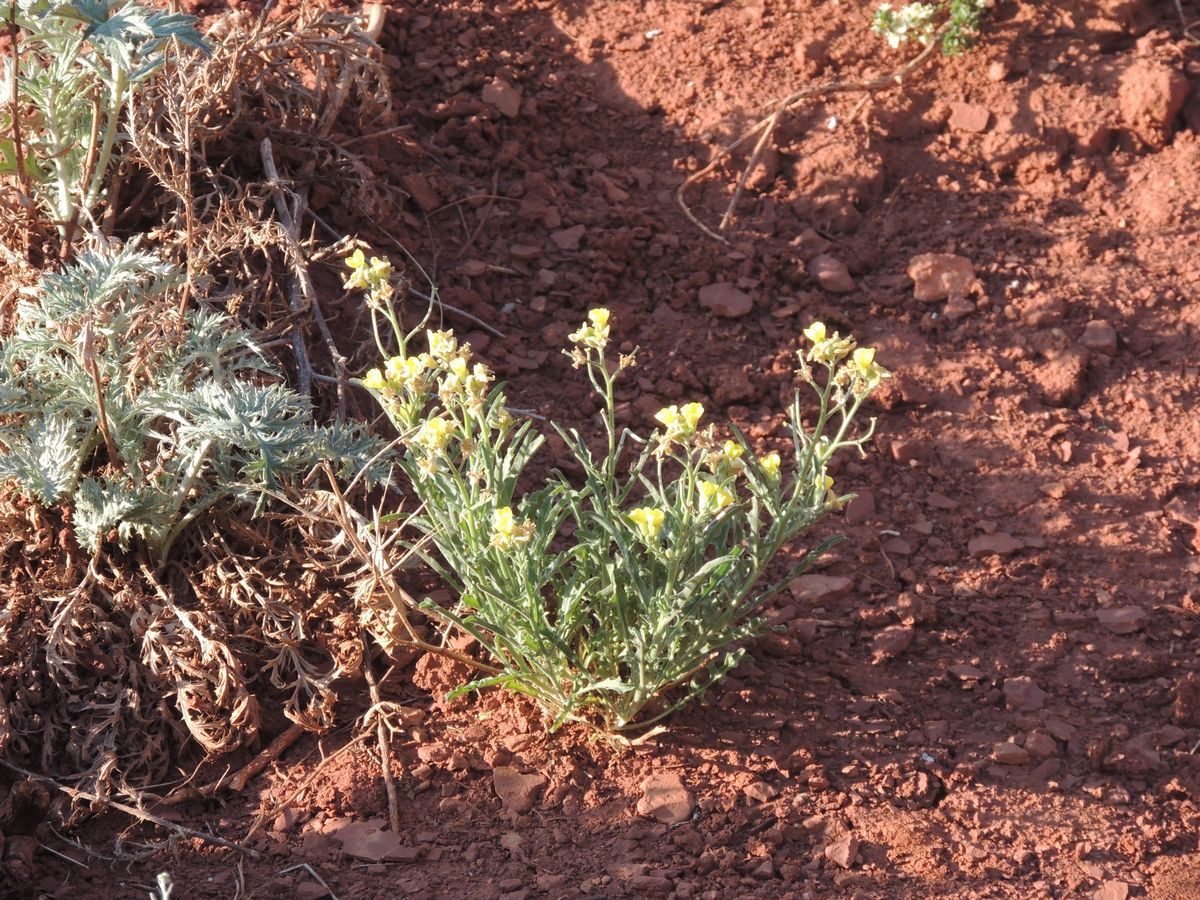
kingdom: Plantae
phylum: Tracheophyta
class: Magnoliopsida
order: Brassicales
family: Brassicaceae
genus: Sterigmostemum
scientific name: Sterigmostemum caspicum
